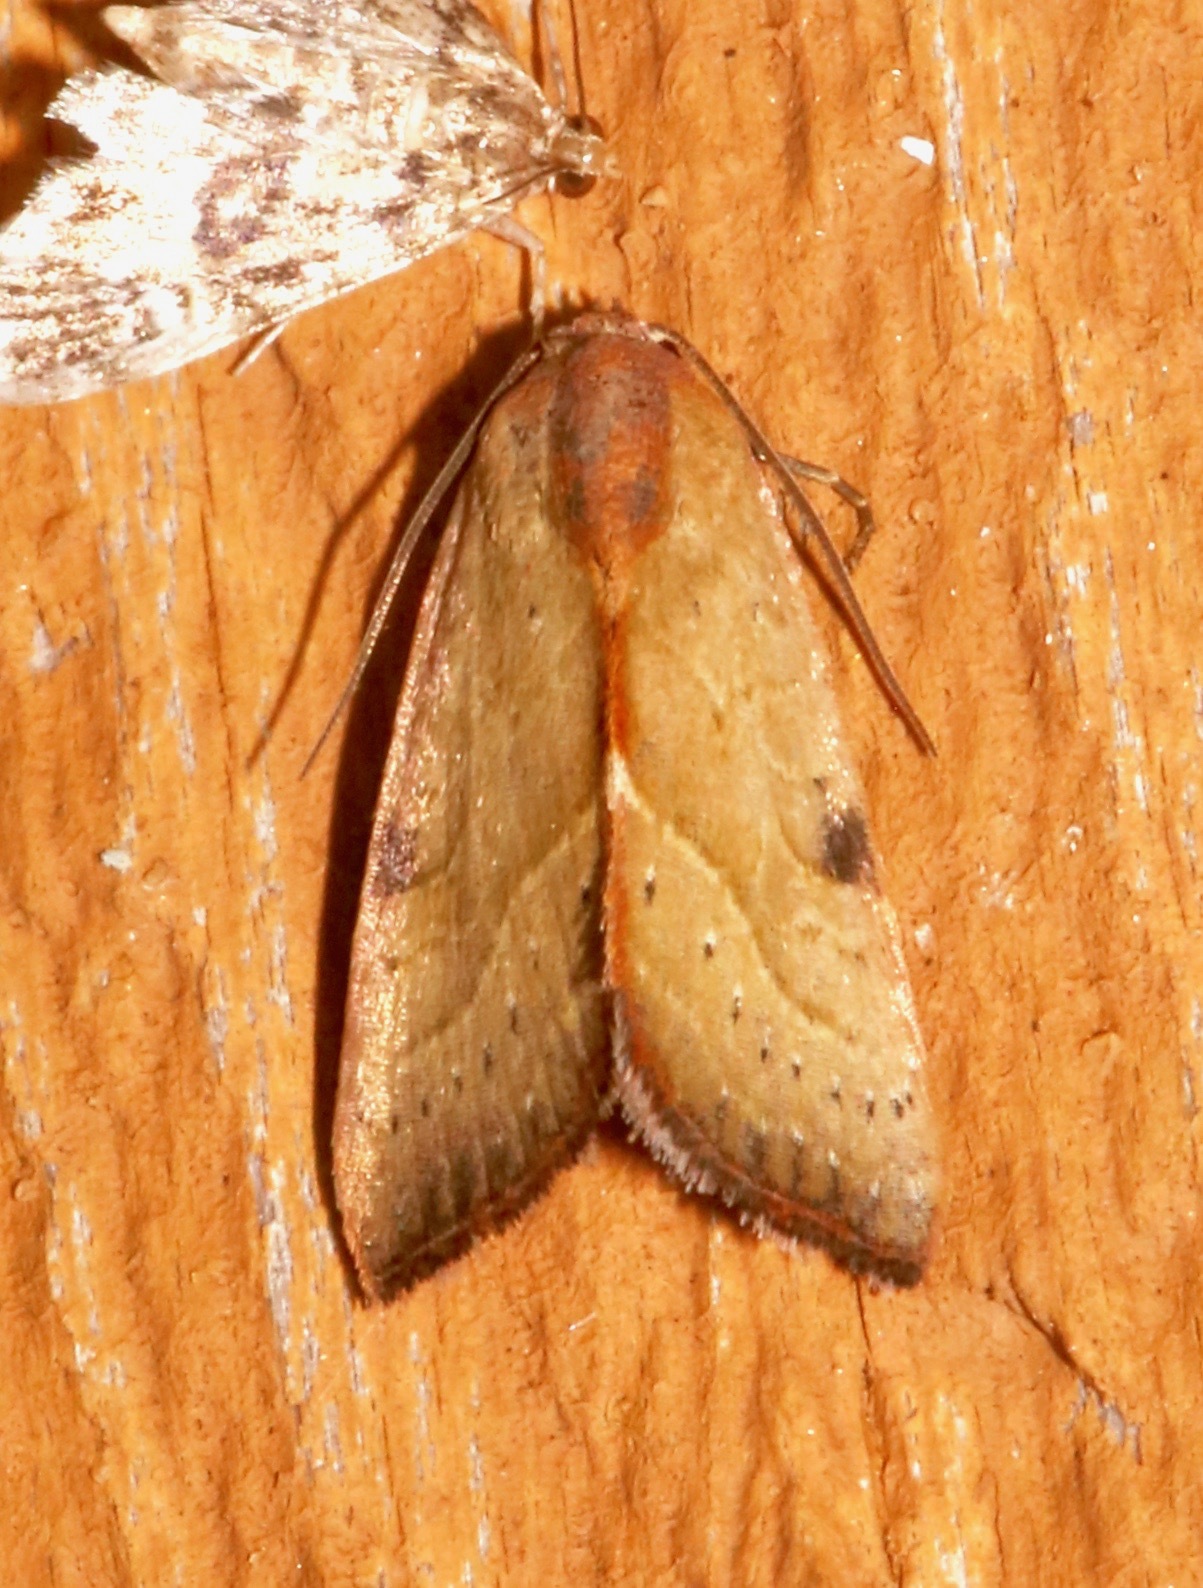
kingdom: Animalia
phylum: Arthropoda
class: Insecta
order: Lepidoptera
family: Noctuidae
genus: Galgula
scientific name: Galgula partita
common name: Wedgeling
